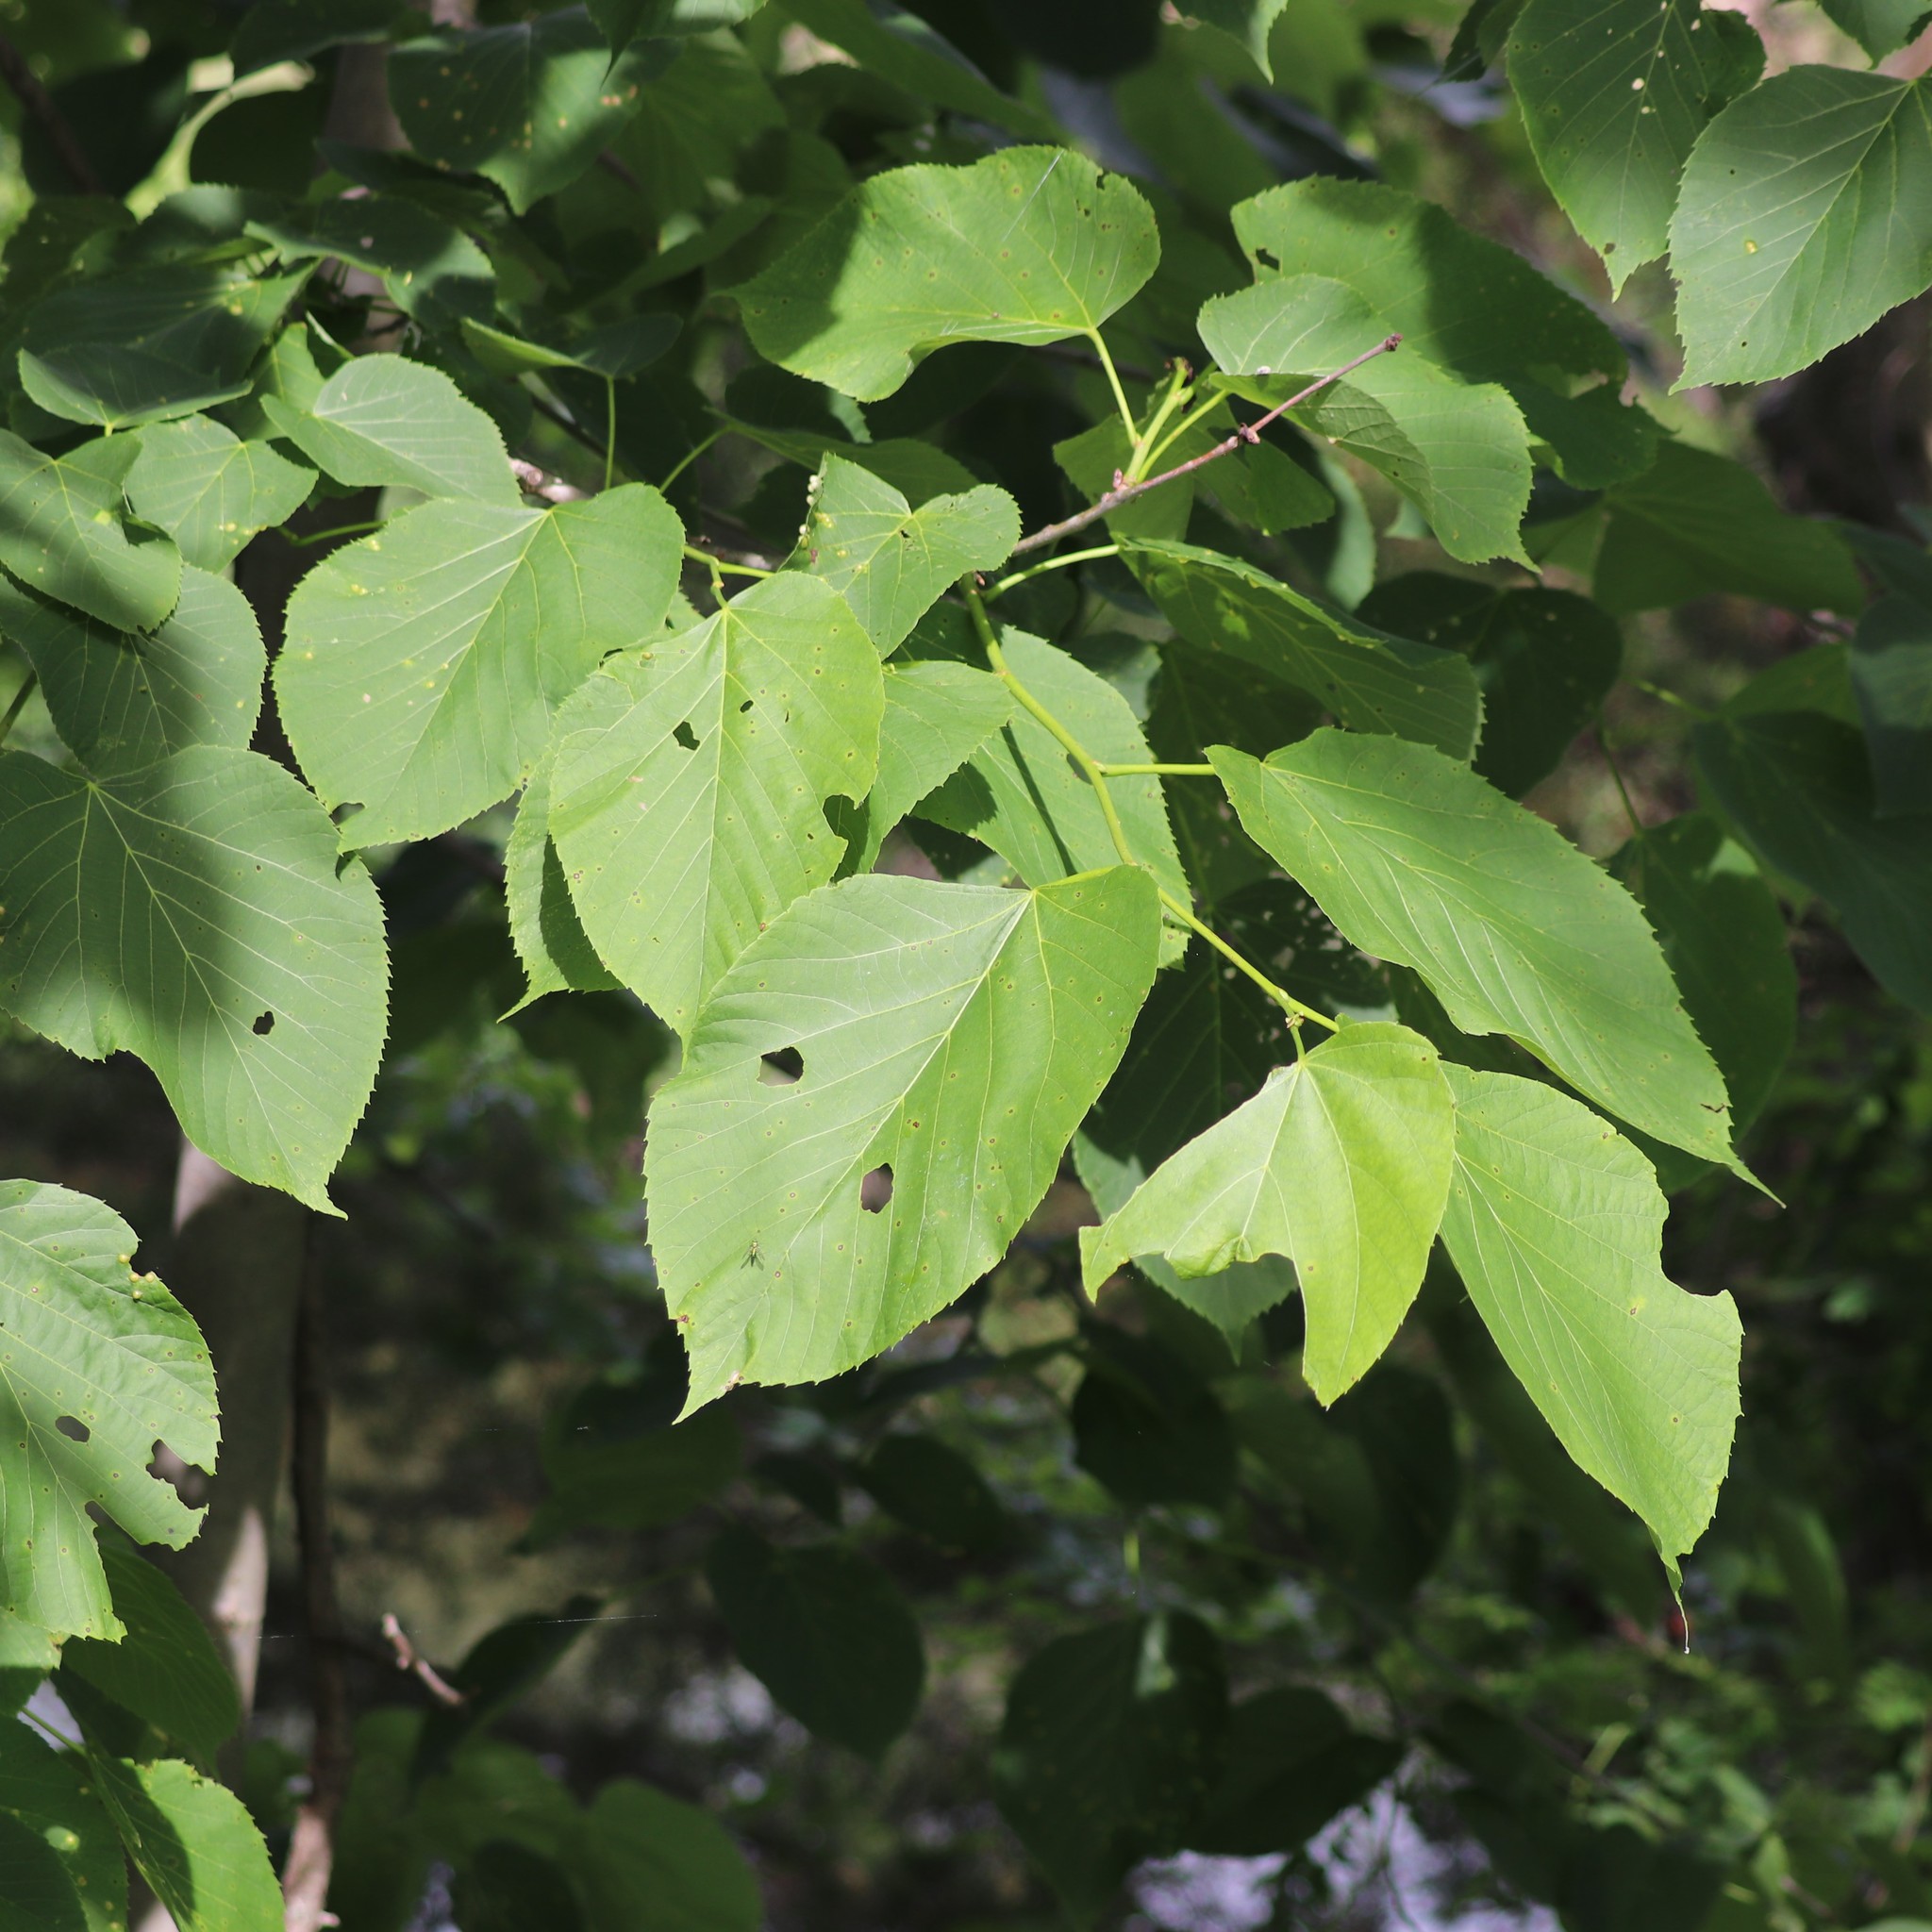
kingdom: Plantae
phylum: Tracheophyta
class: Magnoliopsida
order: Malvales
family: Malvaceae
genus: Tilia
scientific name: Tilia americana
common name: Basswood
